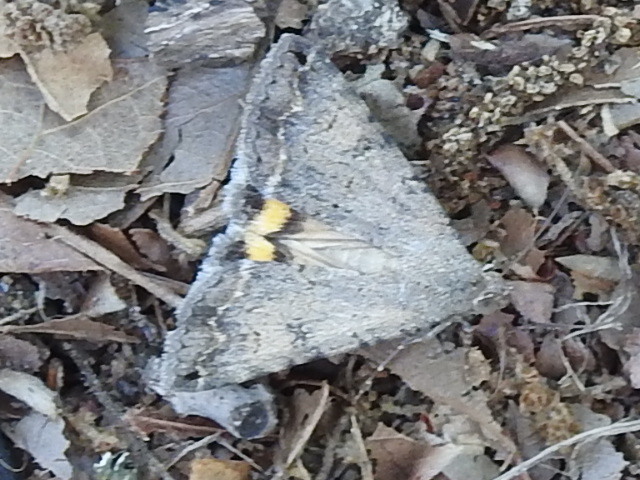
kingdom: Animalia
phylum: Arthropoda
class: Insecta
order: Lepidoptera
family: Erebidae
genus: Bulia
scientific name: Bulia deducta
